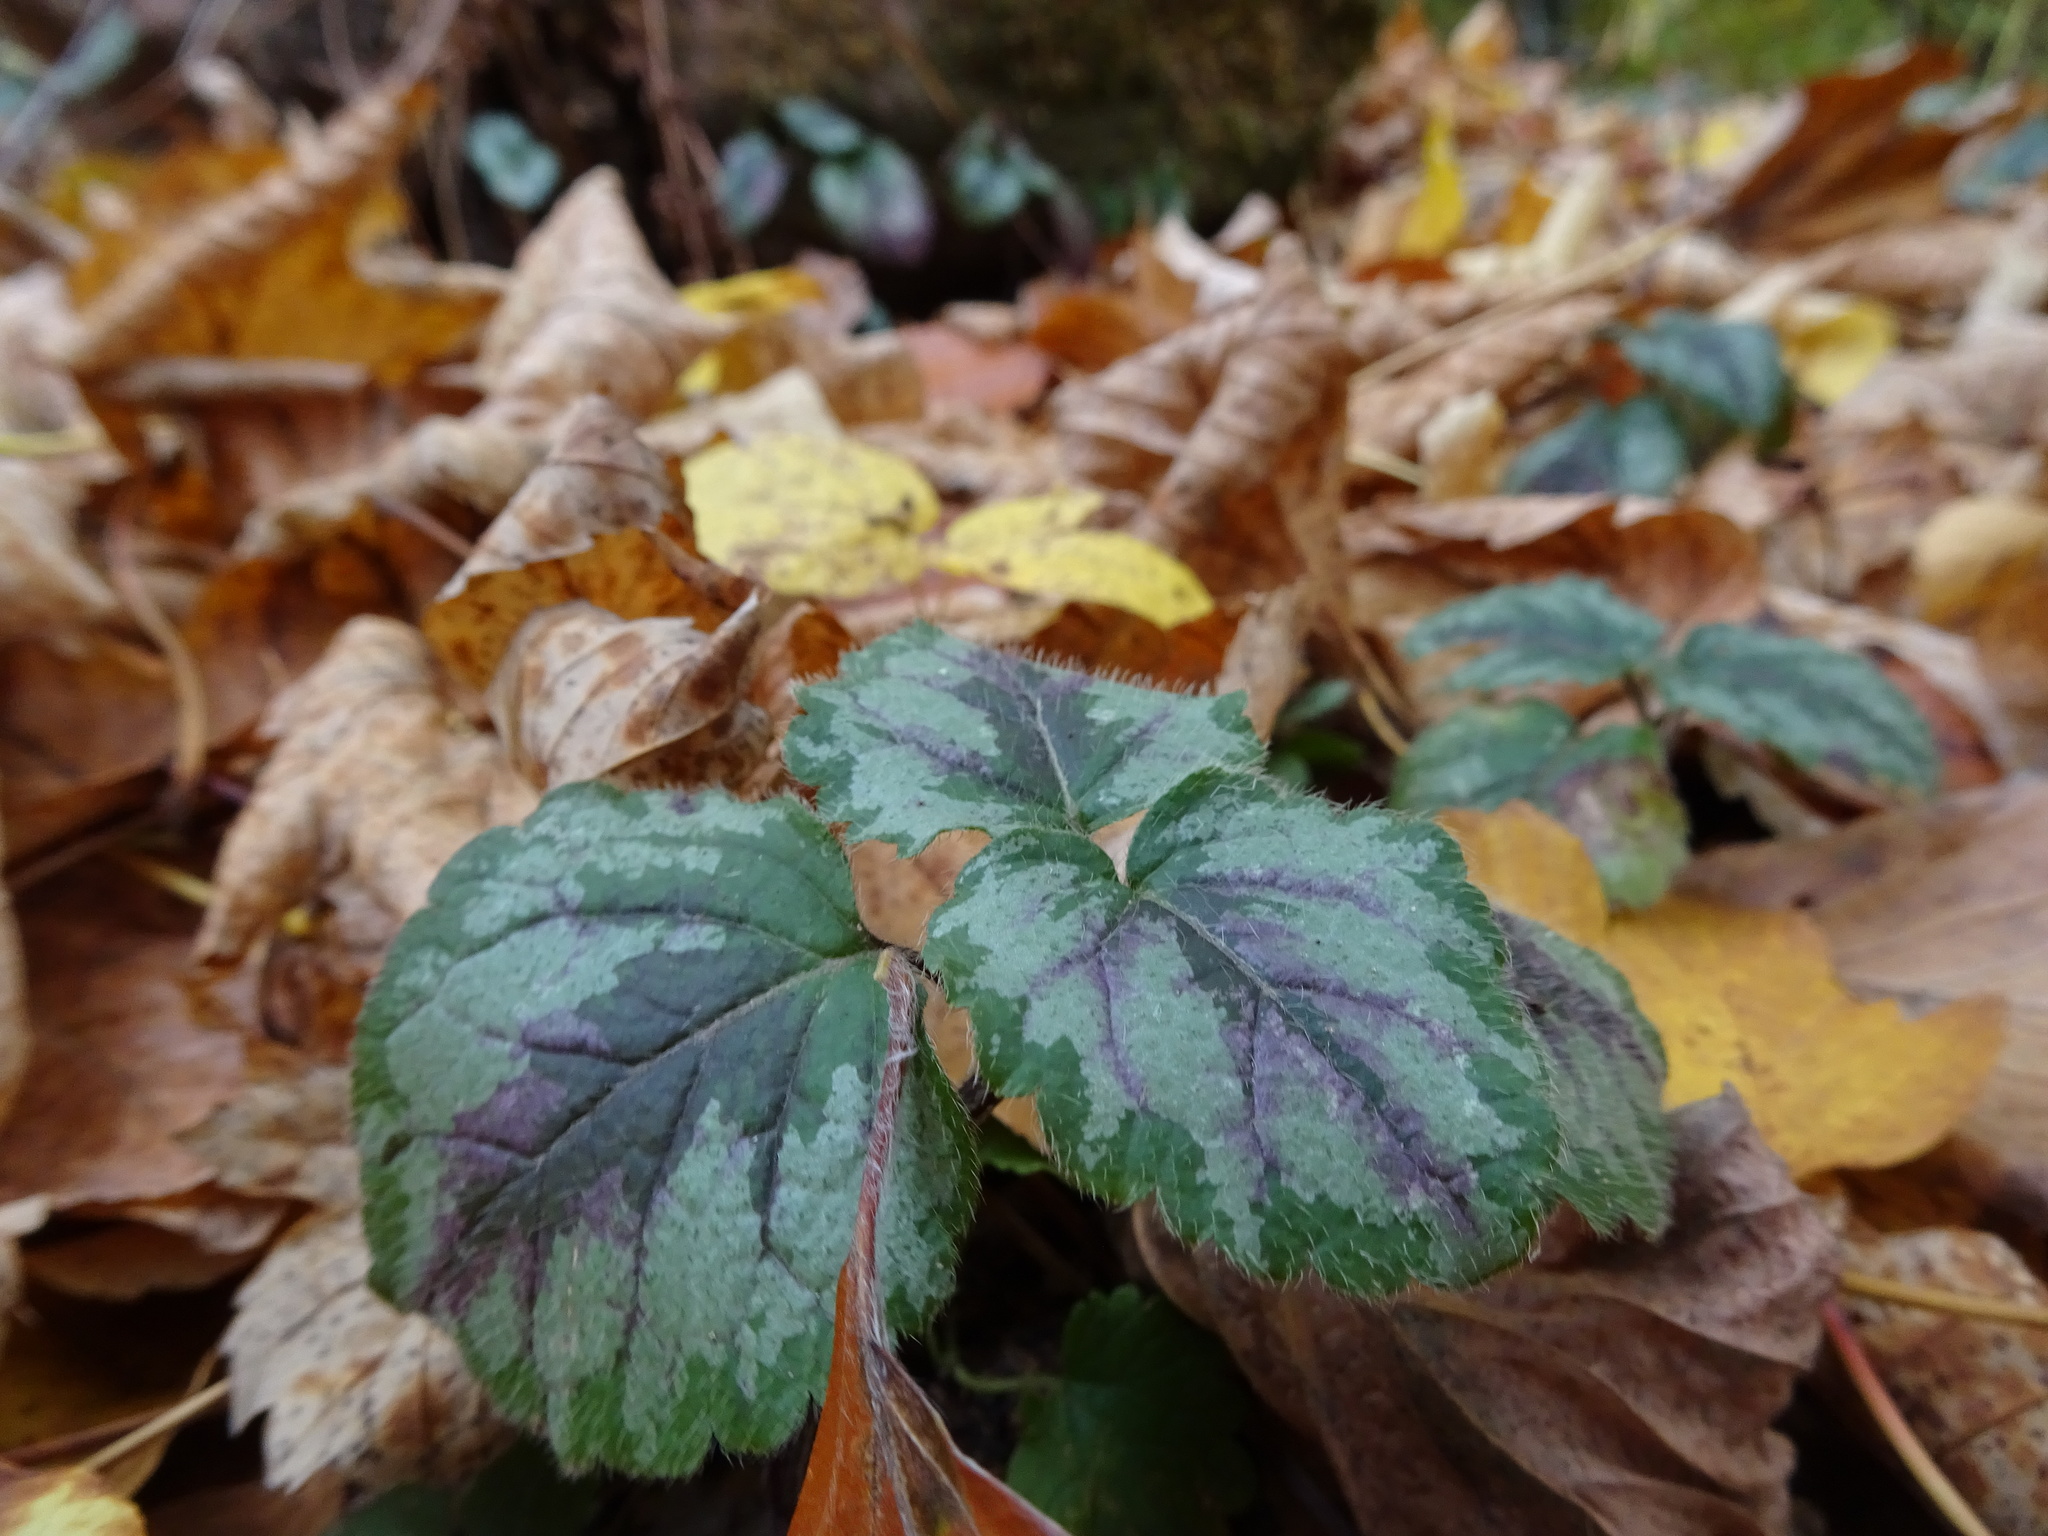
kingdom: Plantae
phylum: Tracheophyta
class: Magnoliopsida
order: Lamiales
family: Lamiaceae
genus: Lamium
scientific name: Lamium galeobdolon
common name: Yellow archangel
